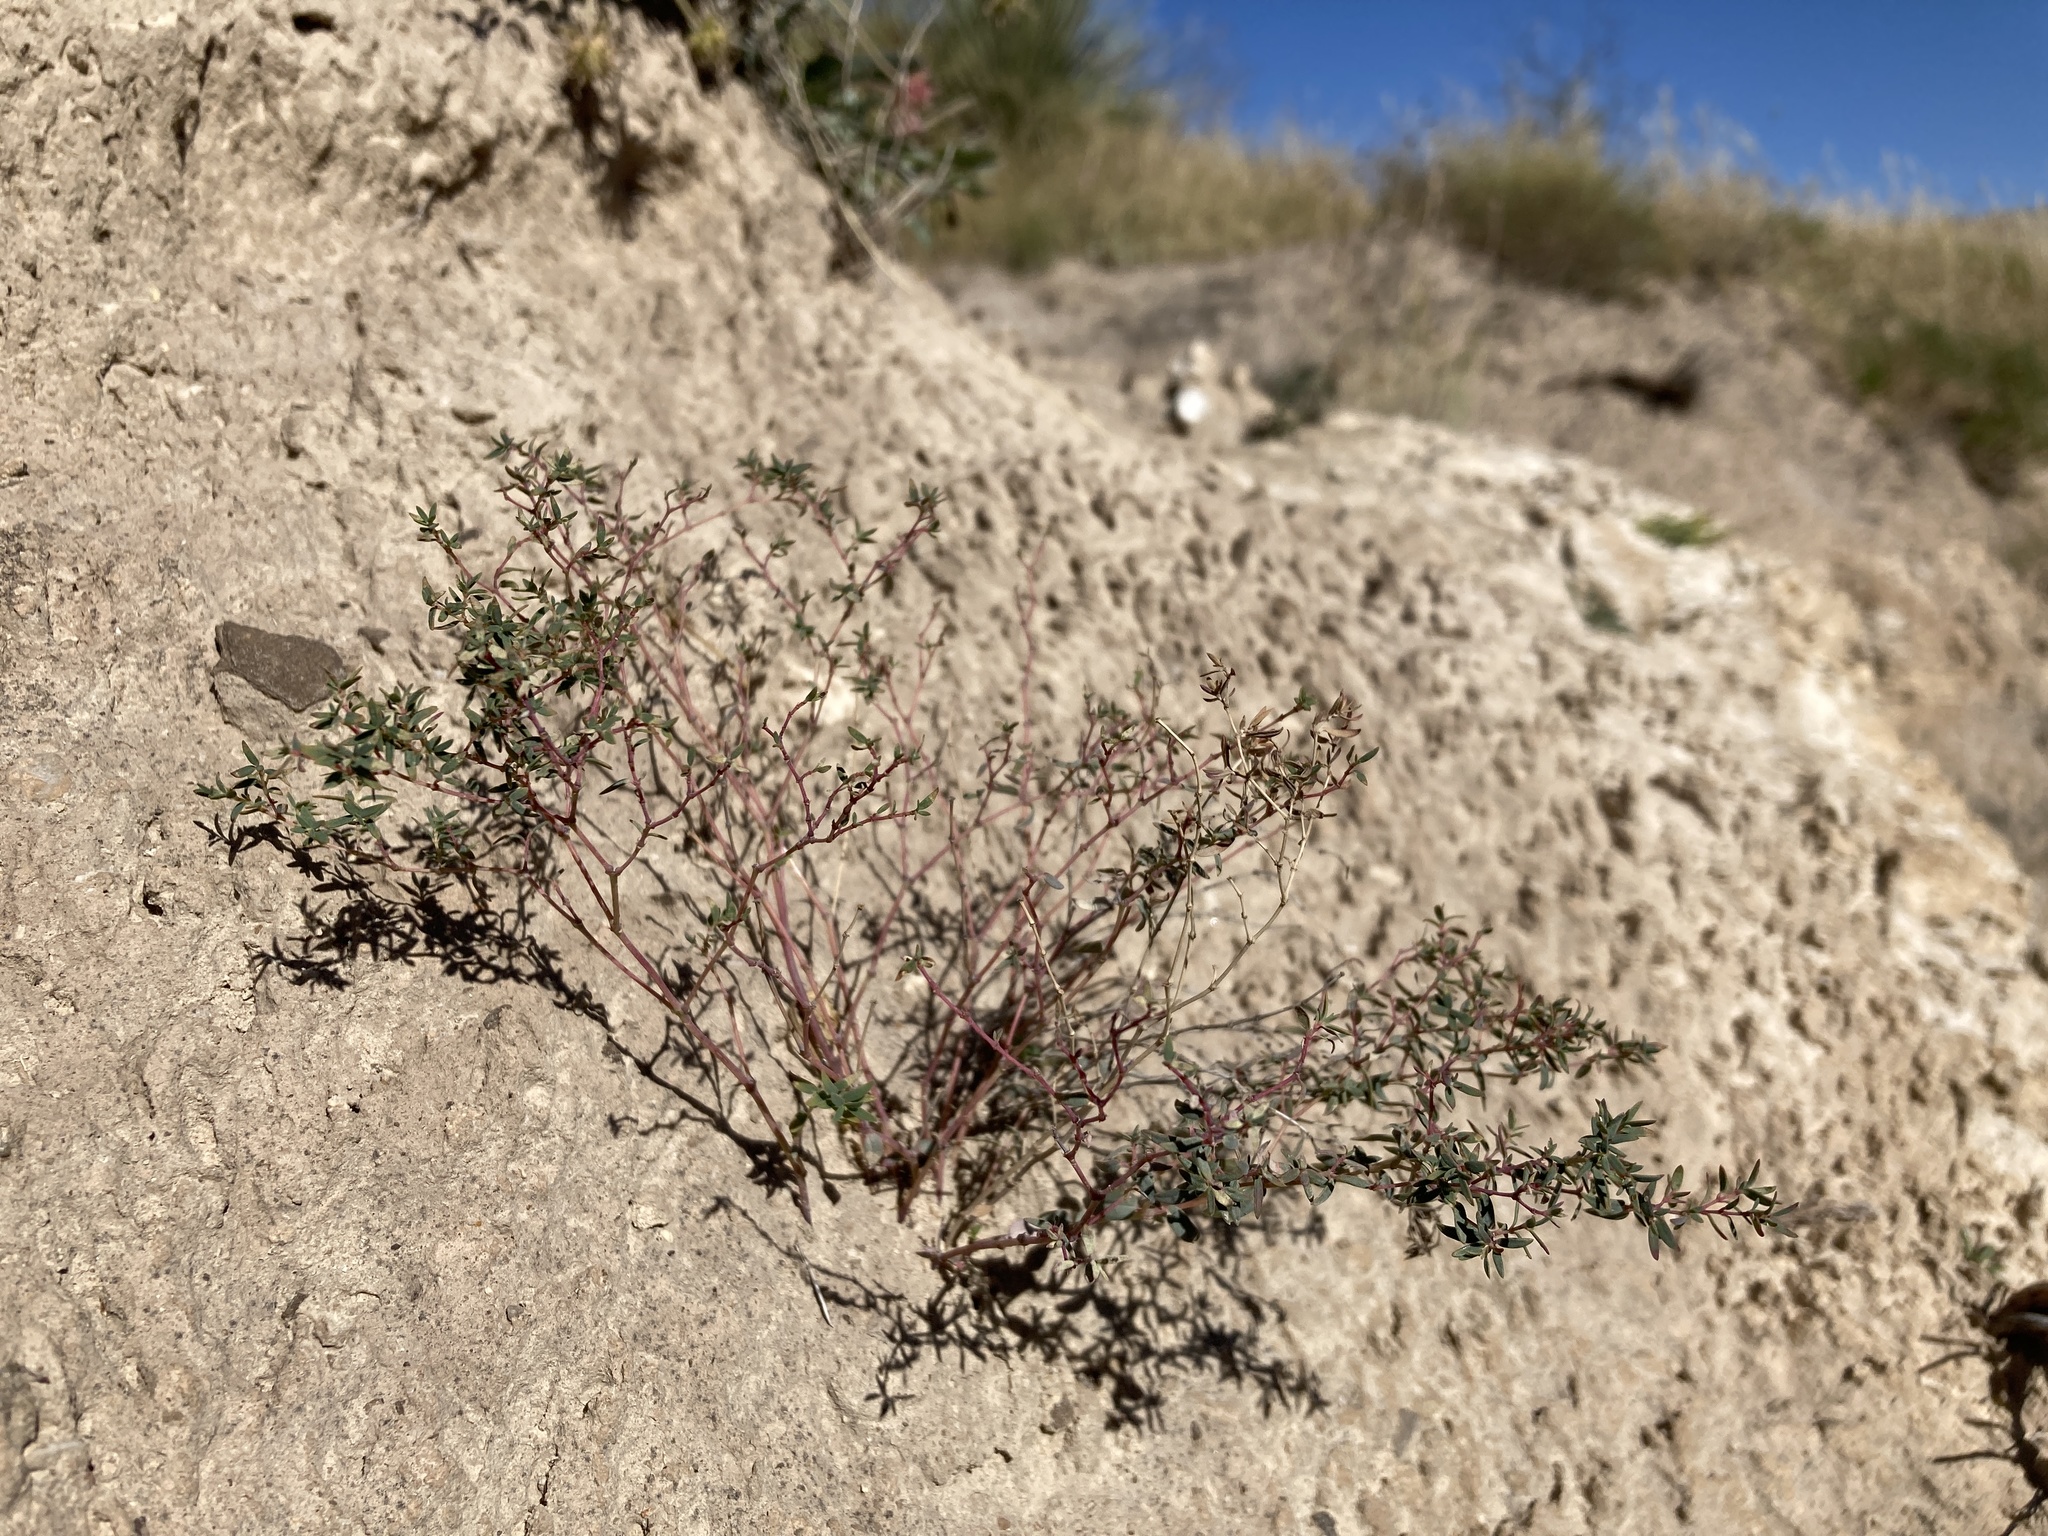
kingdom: Plantae
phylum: Tracheophyta
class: Magnoliopsida
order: Malpighiales
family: Euphorbiaceae
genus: Euphorbia
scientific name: Euphorbia chaetocalyx
